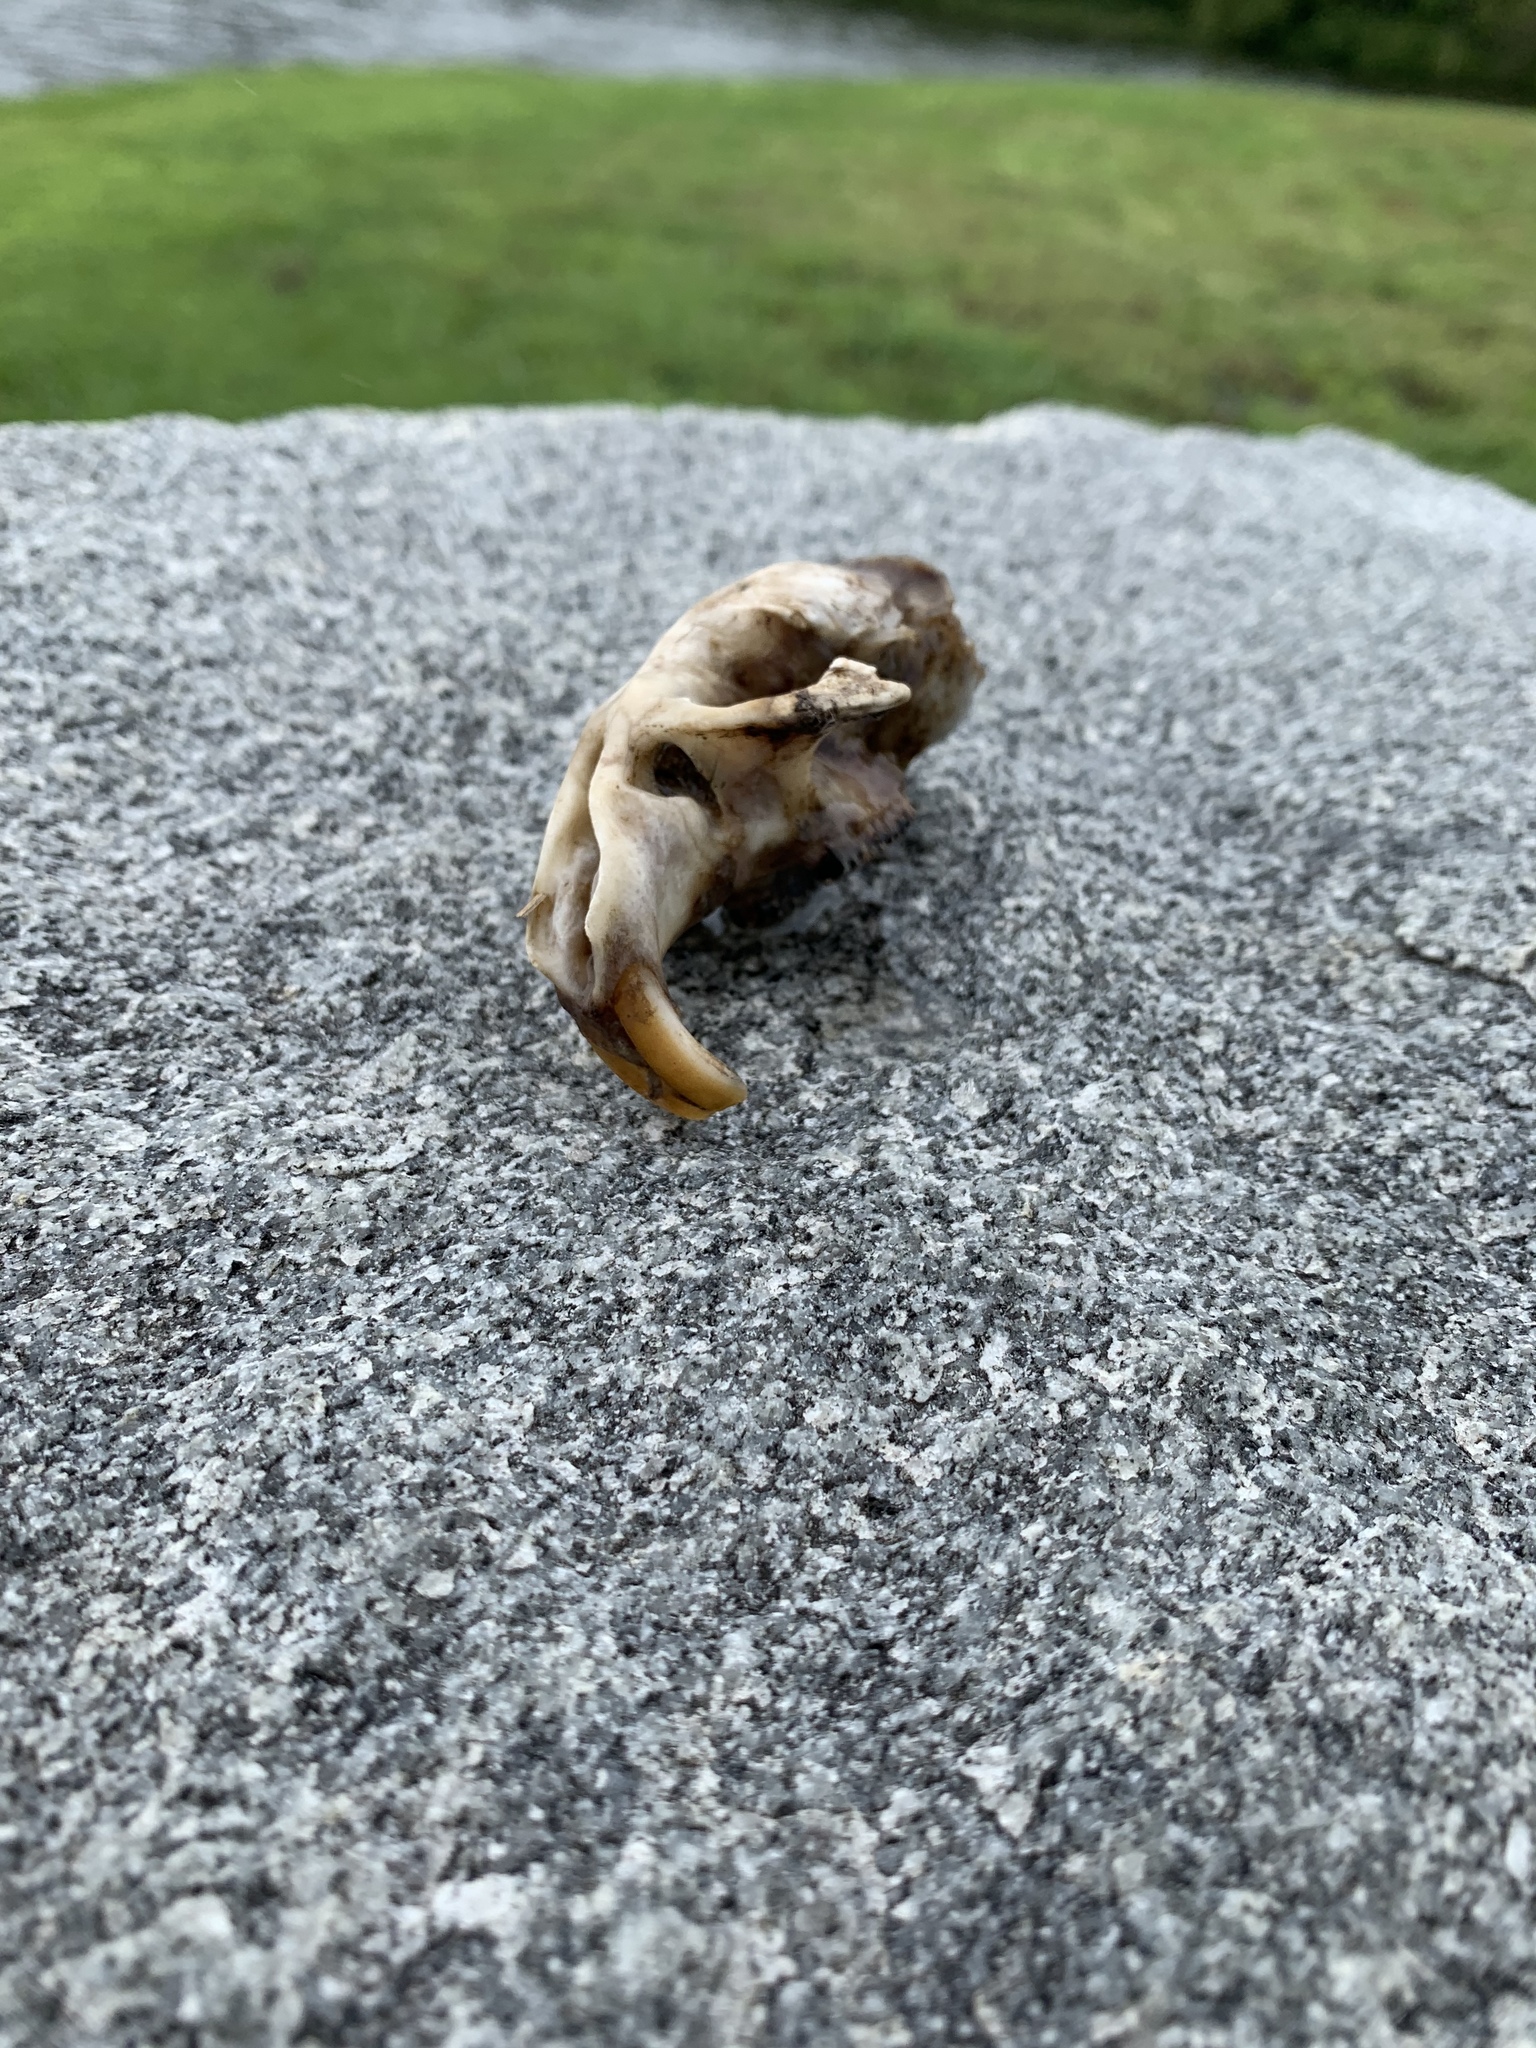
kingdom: Animalia
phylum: Chordata
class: Mammalia
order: Rodentia
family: Cricetidae
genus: Ondatra
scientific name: Ondatra zibethicus
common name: Muskrat
